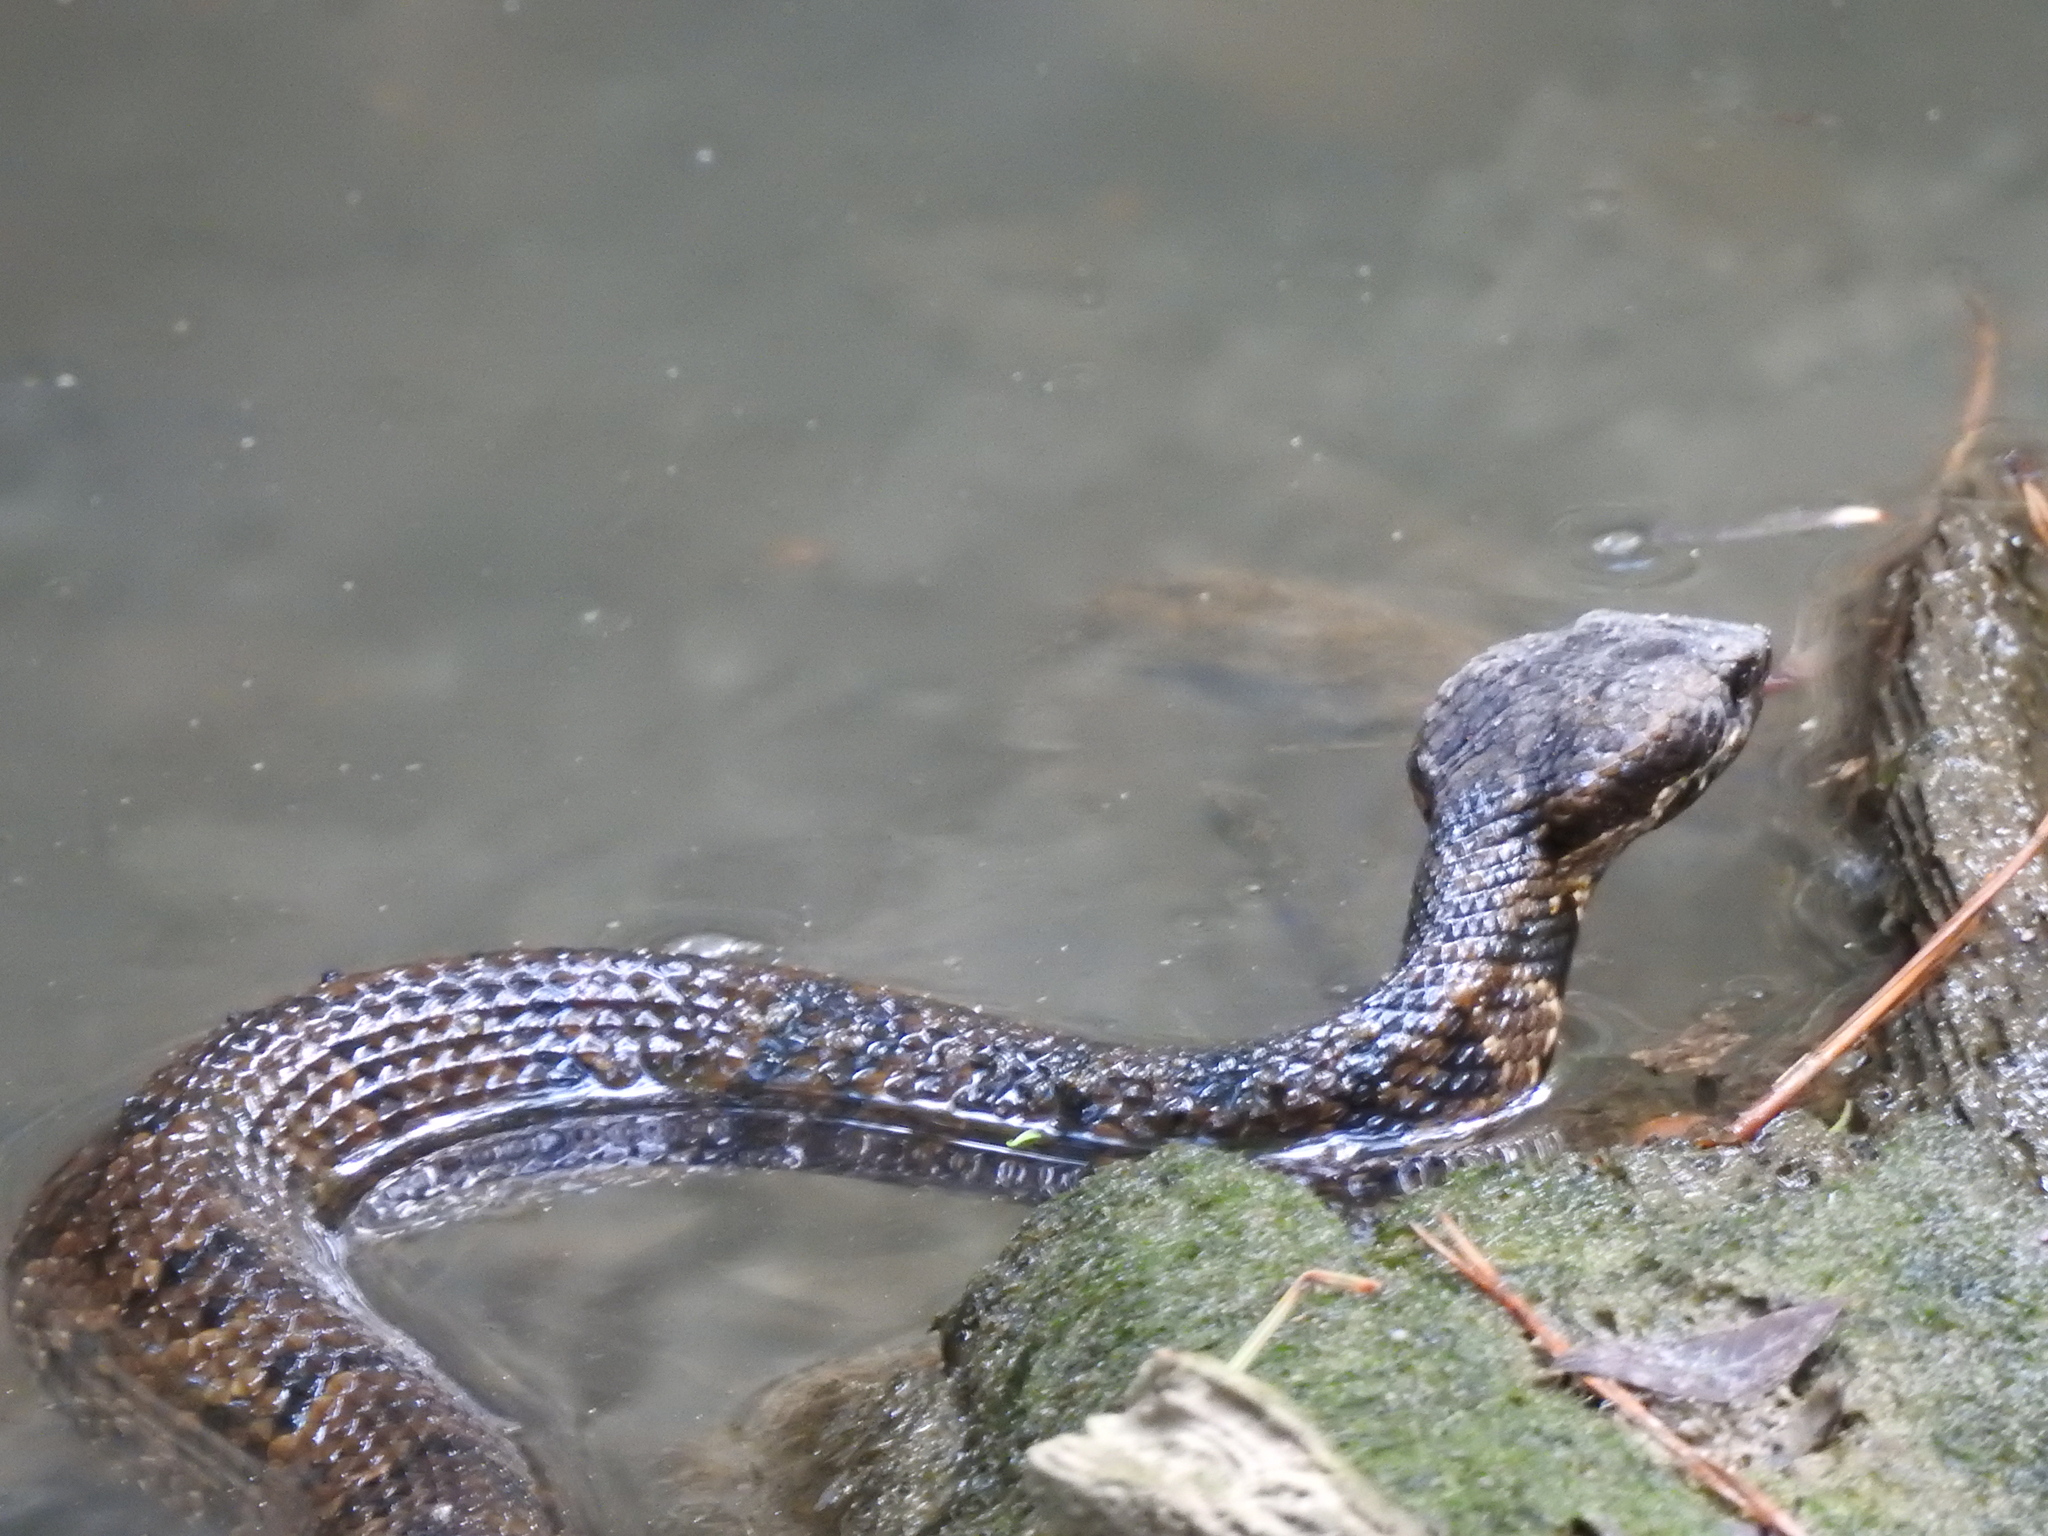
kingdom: Animalia
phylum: Chordata
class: Squamata
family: Viperidae
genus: Agkistrodon
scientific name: Agkistrodon piscivorus
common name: Cottonmouth
